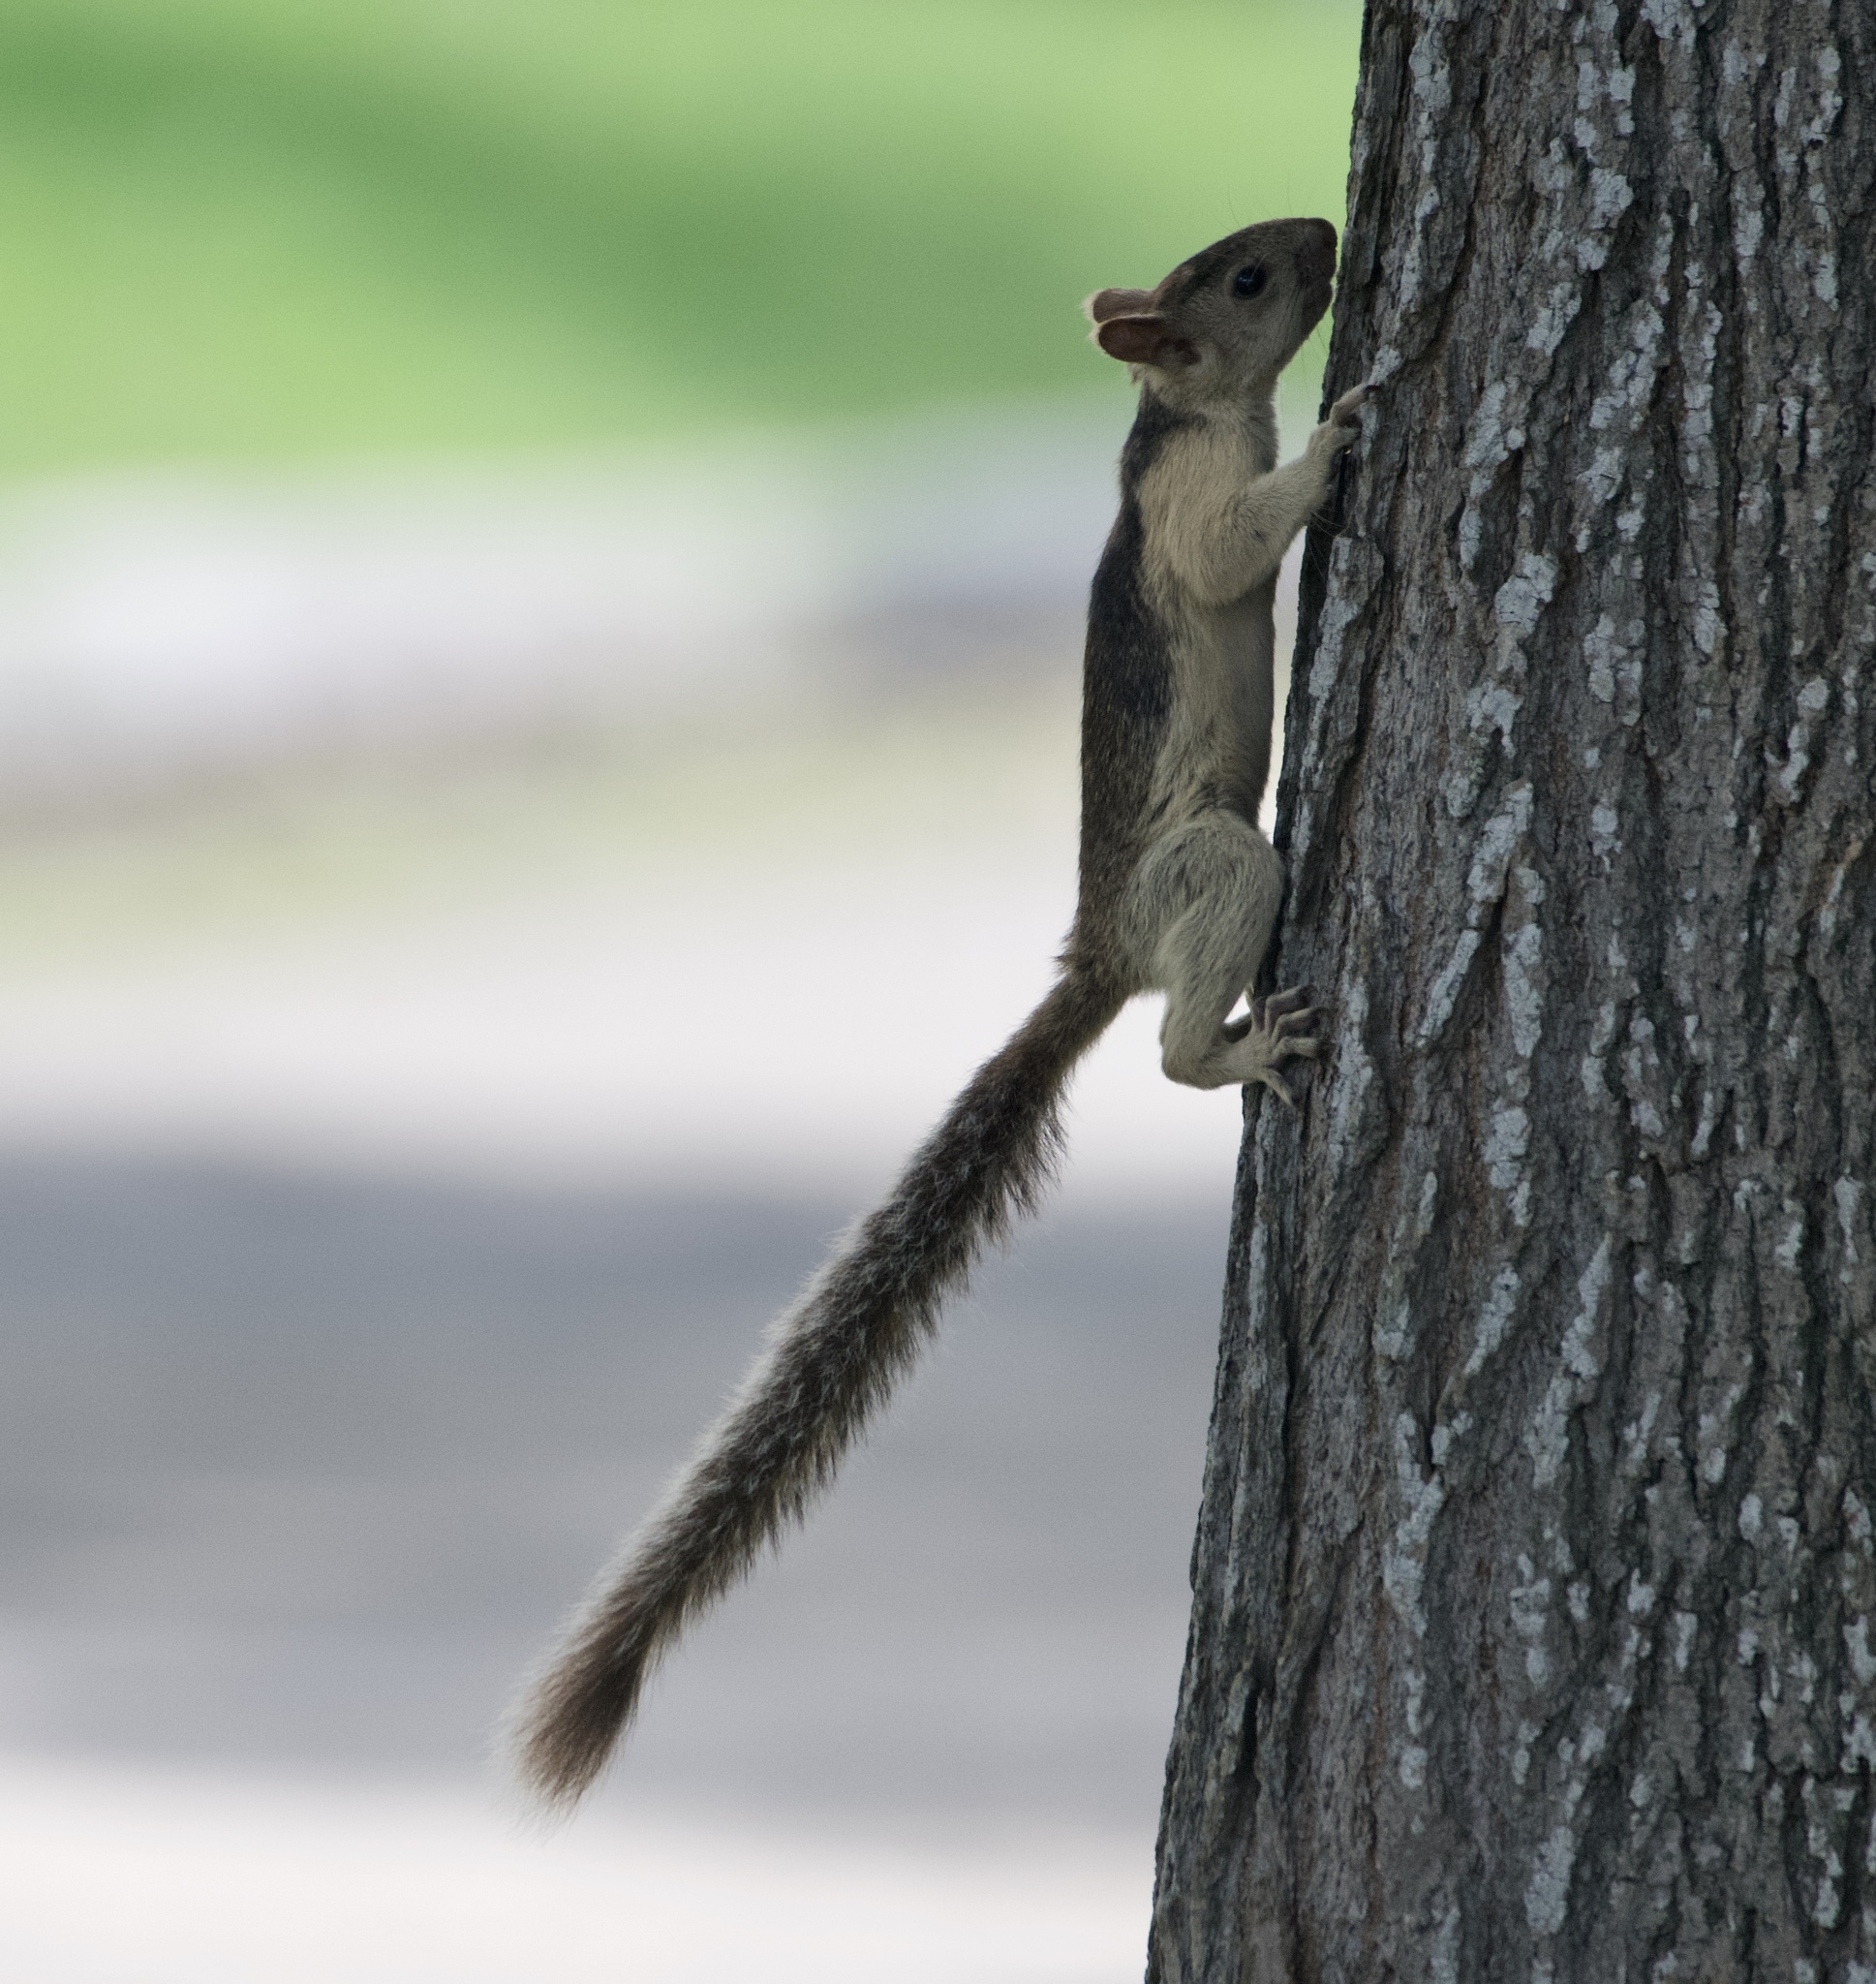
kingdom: Animalia
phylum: Chordata
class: Mammalia
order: Rodentia
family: Sciuridae
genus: Sciurus
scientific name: Sciurus variegatoides
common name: Variegated squirrel
